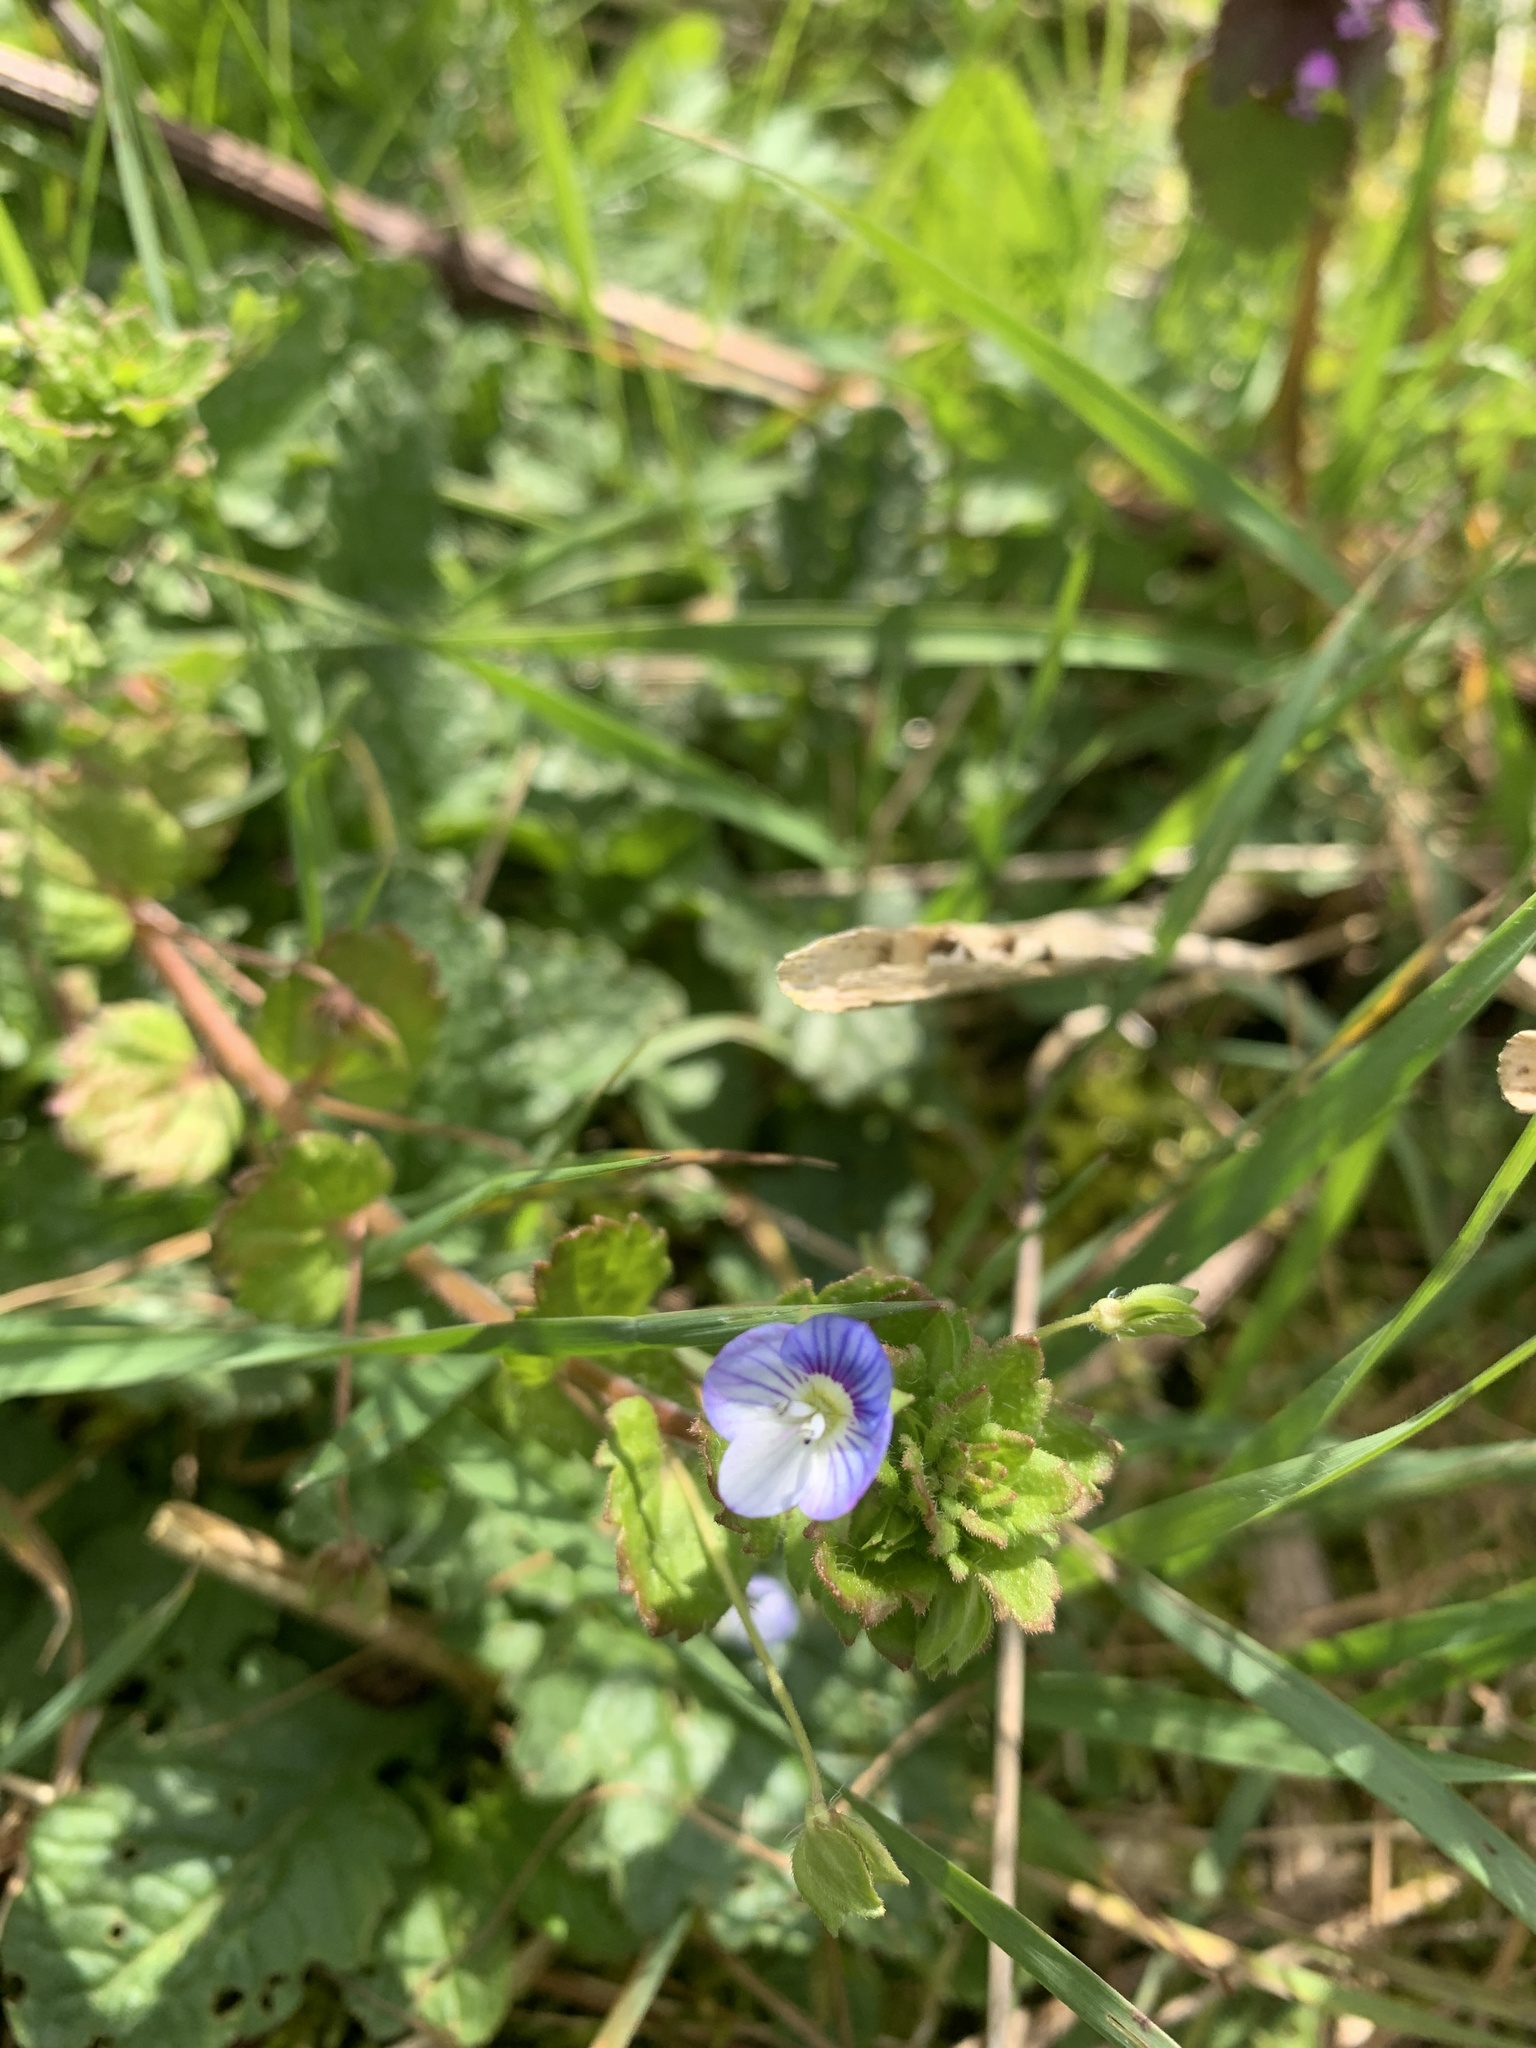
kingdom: Plantae
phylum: Tracheophyta
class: Magnoliopsida
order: Lamiales
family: Plantaginaceae
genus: Veronica
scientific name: Veronica persica
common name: Common field-speedwell
